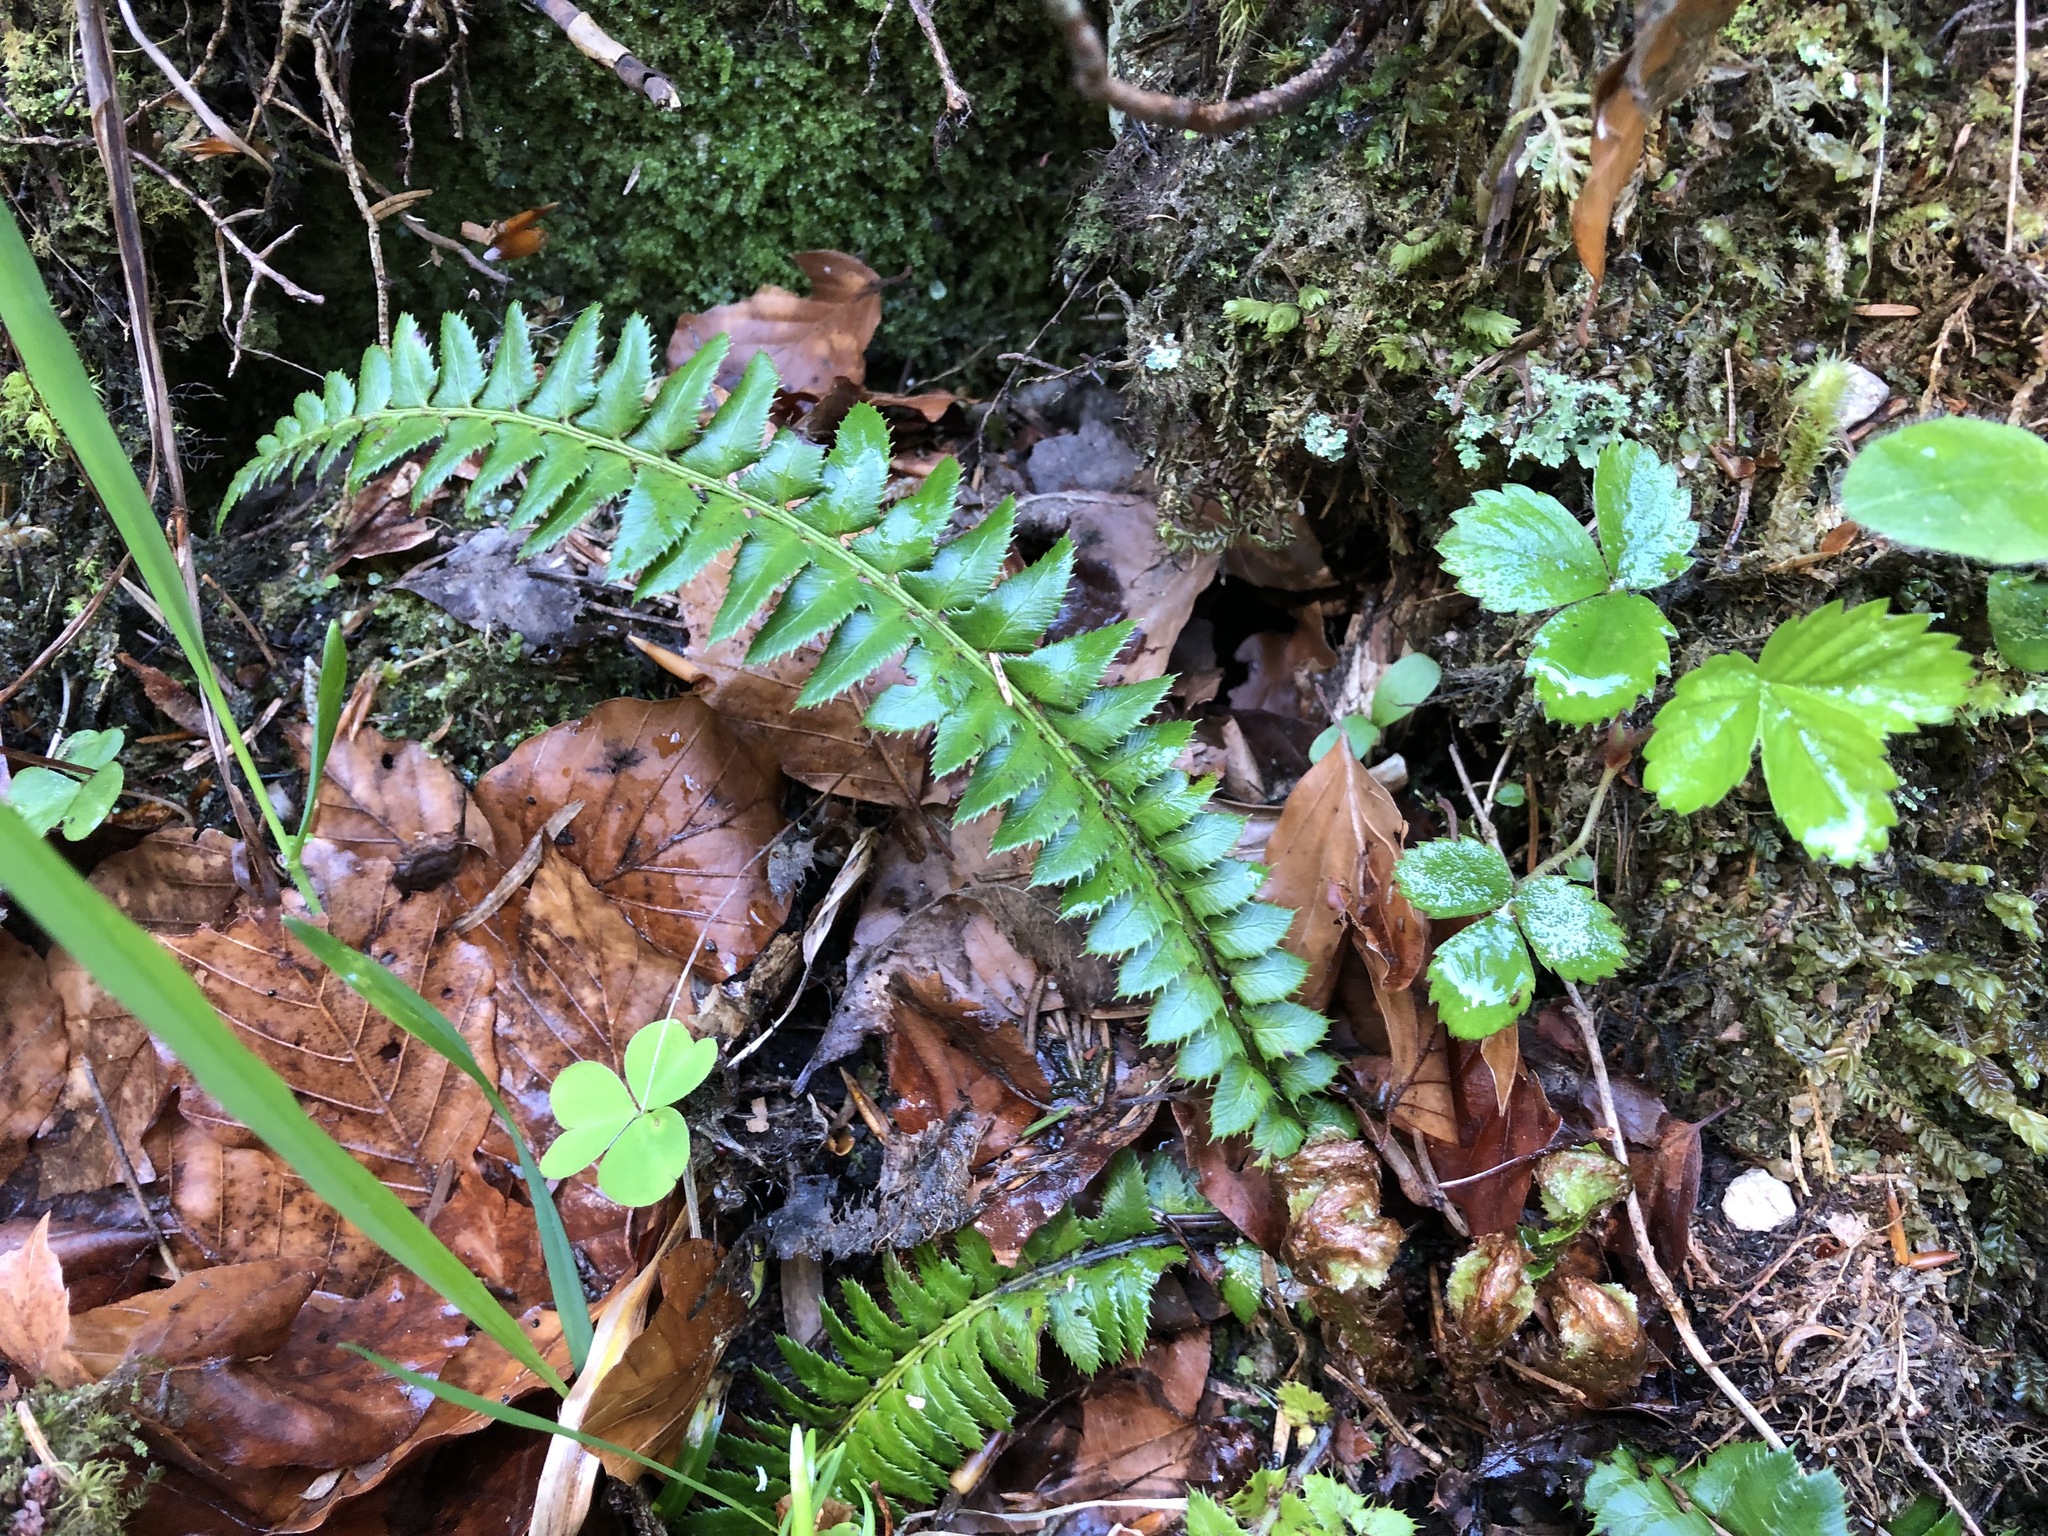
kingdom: Plantae
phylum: Tracheophyta
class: Polypodiopsida
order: Polypodiales
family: Dryopteridaceae
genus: Polystichum
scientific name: Polystichum lonchitis
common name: Holly fern
